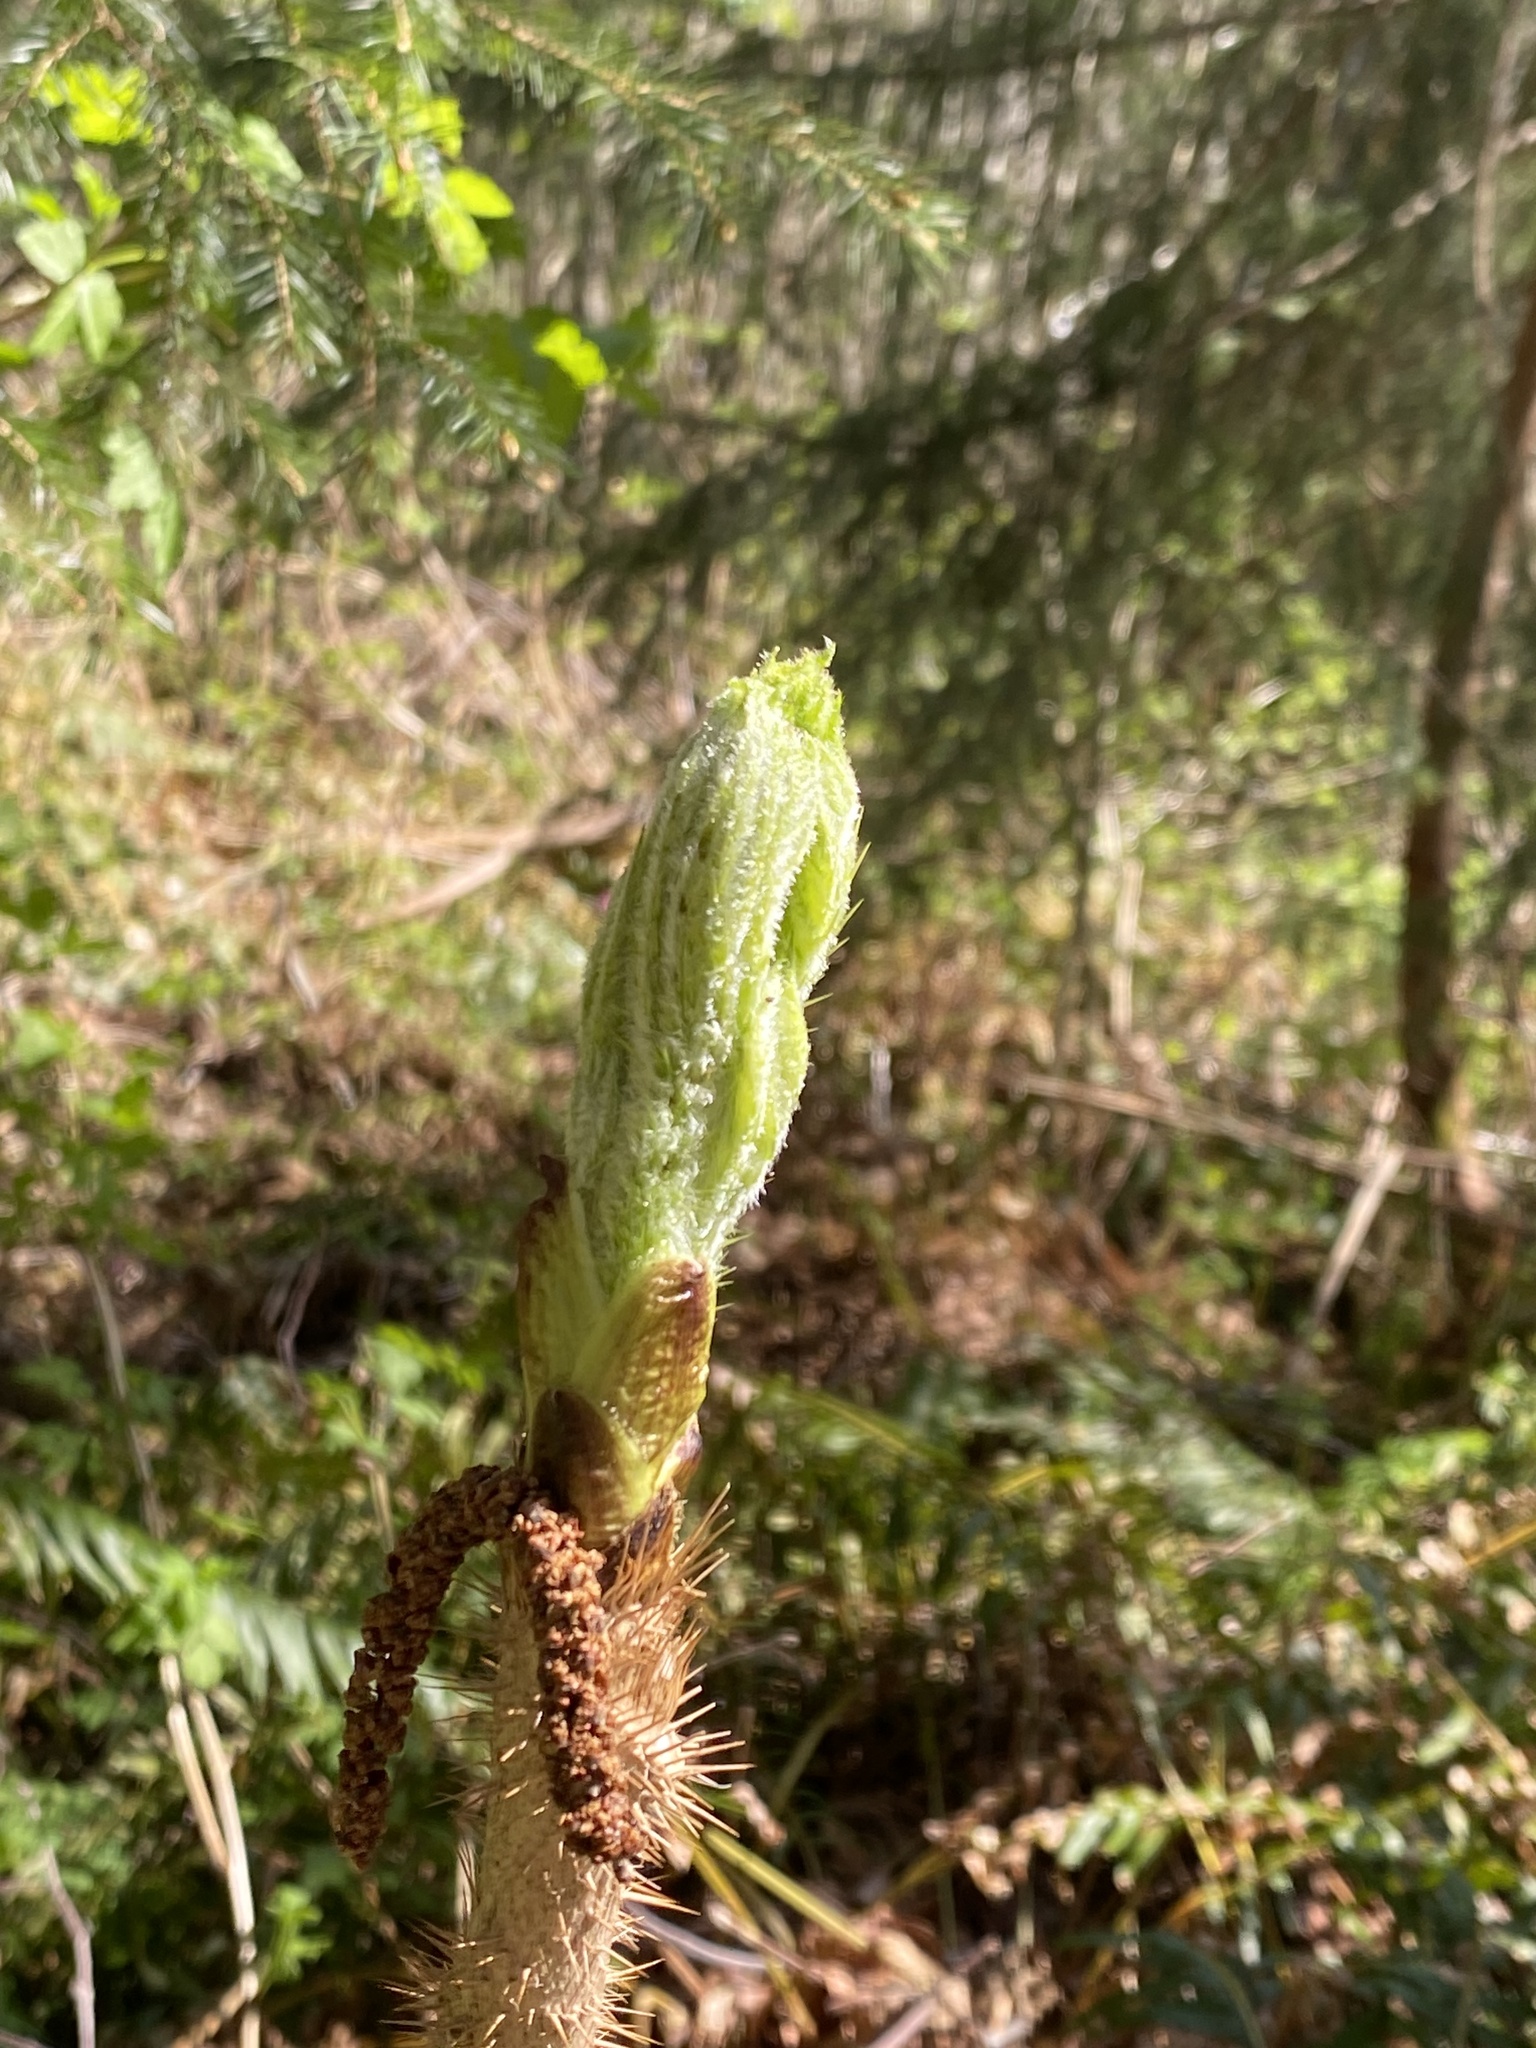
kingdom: Plantae
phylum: Tracheophyta
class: Magnoliopsida
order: Apiales
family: Araliaceae
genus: Oplopanax
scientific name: Oplopanax horridus
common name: Devil's walking-stick
